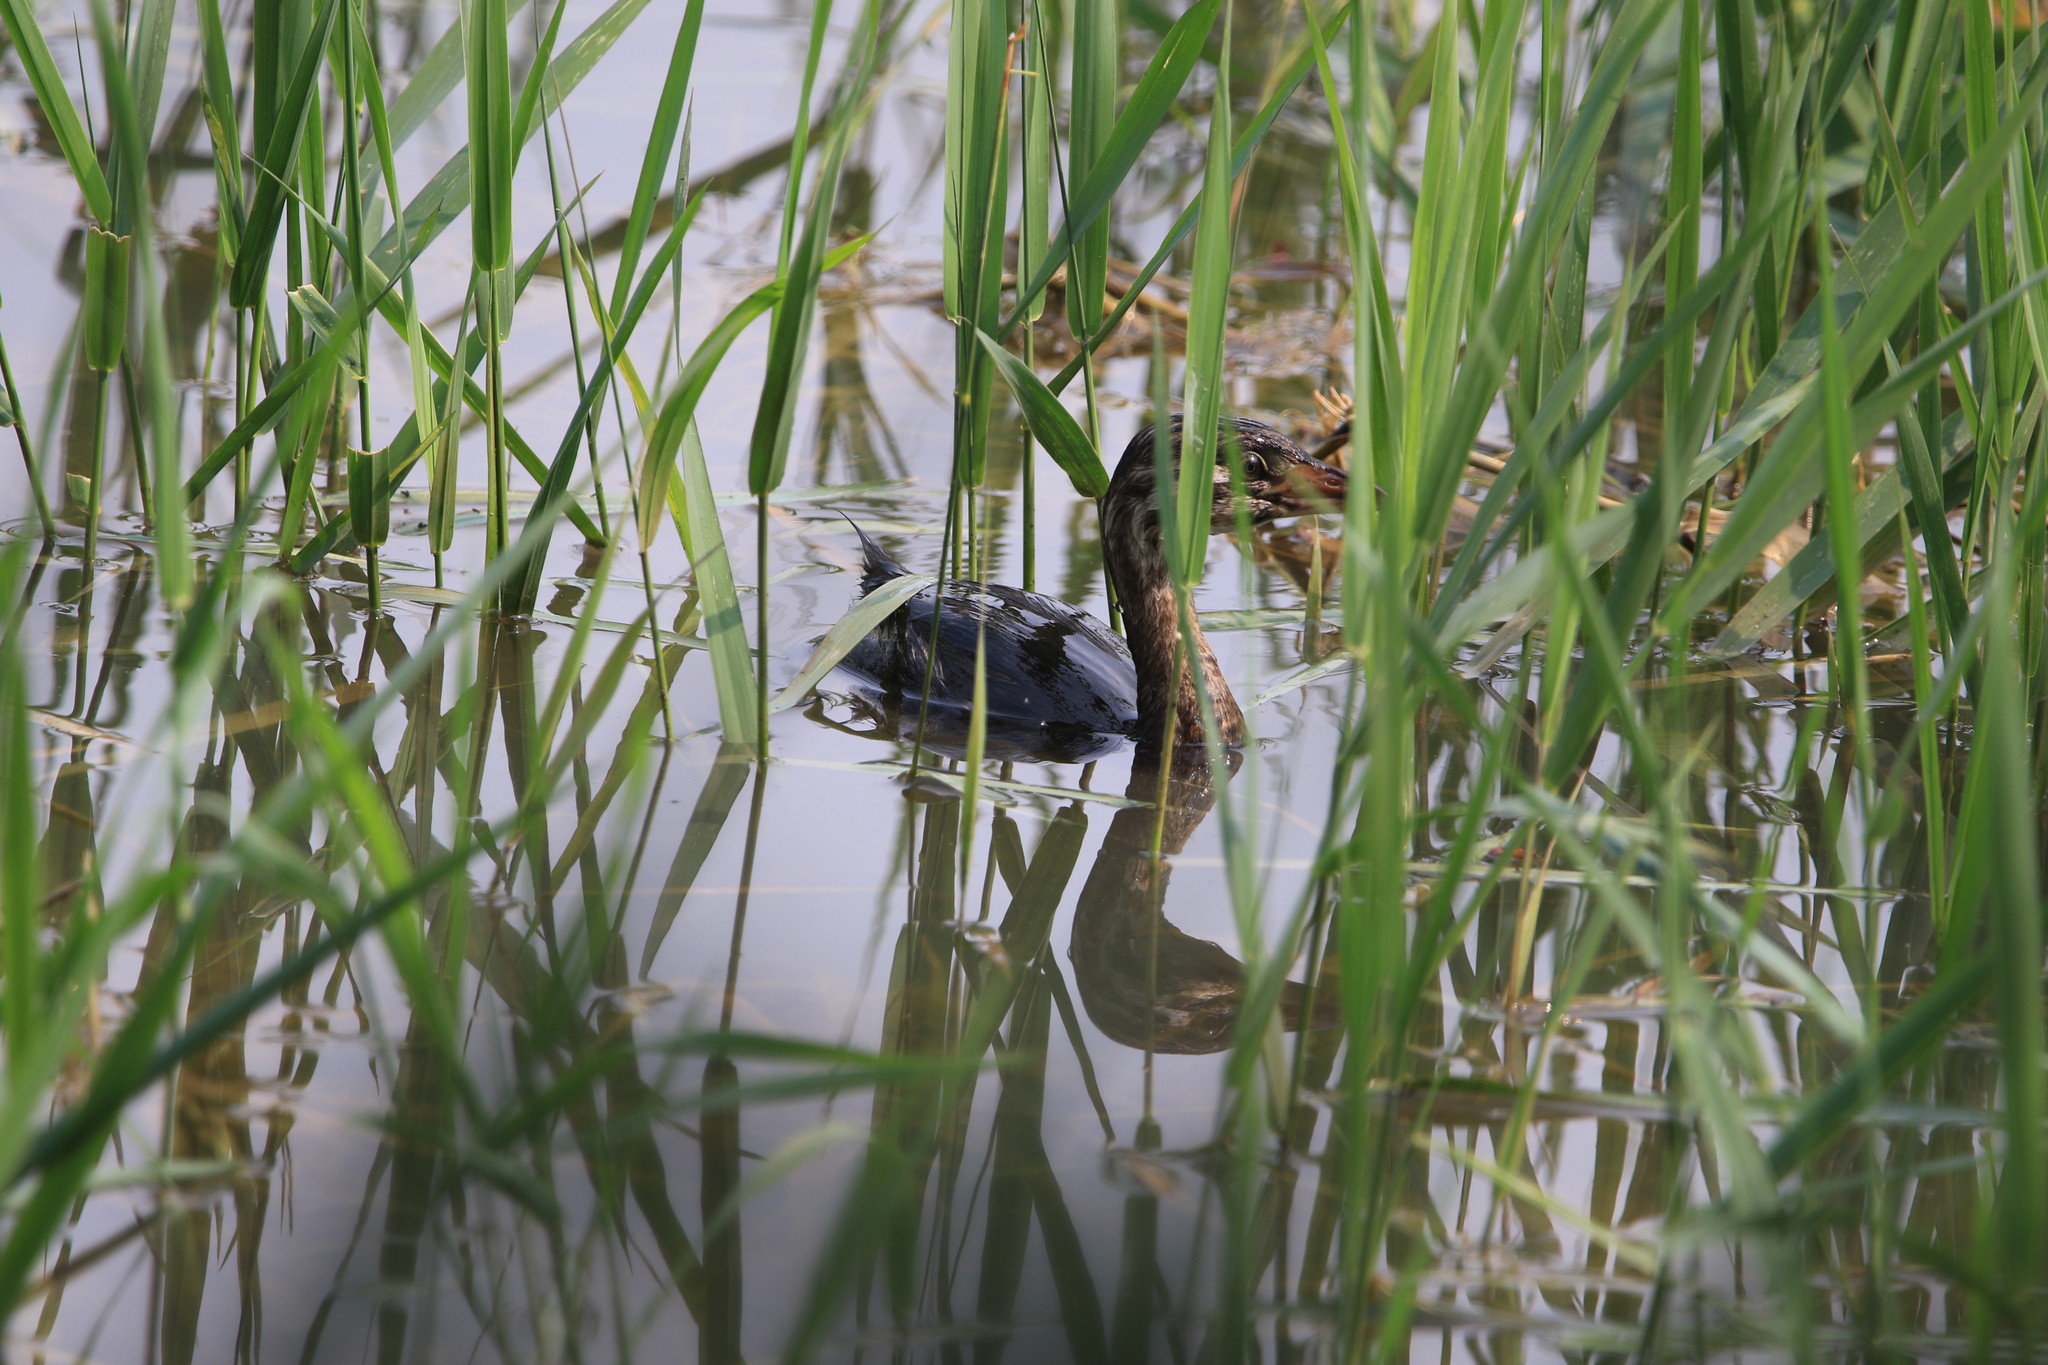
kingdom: Animalia
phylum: Chordata
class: Aves
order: Podicipediformes
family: Podicipedidae
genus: Podilymbus
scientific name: Podilymbus podiceps
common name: Pied-billed grebe
